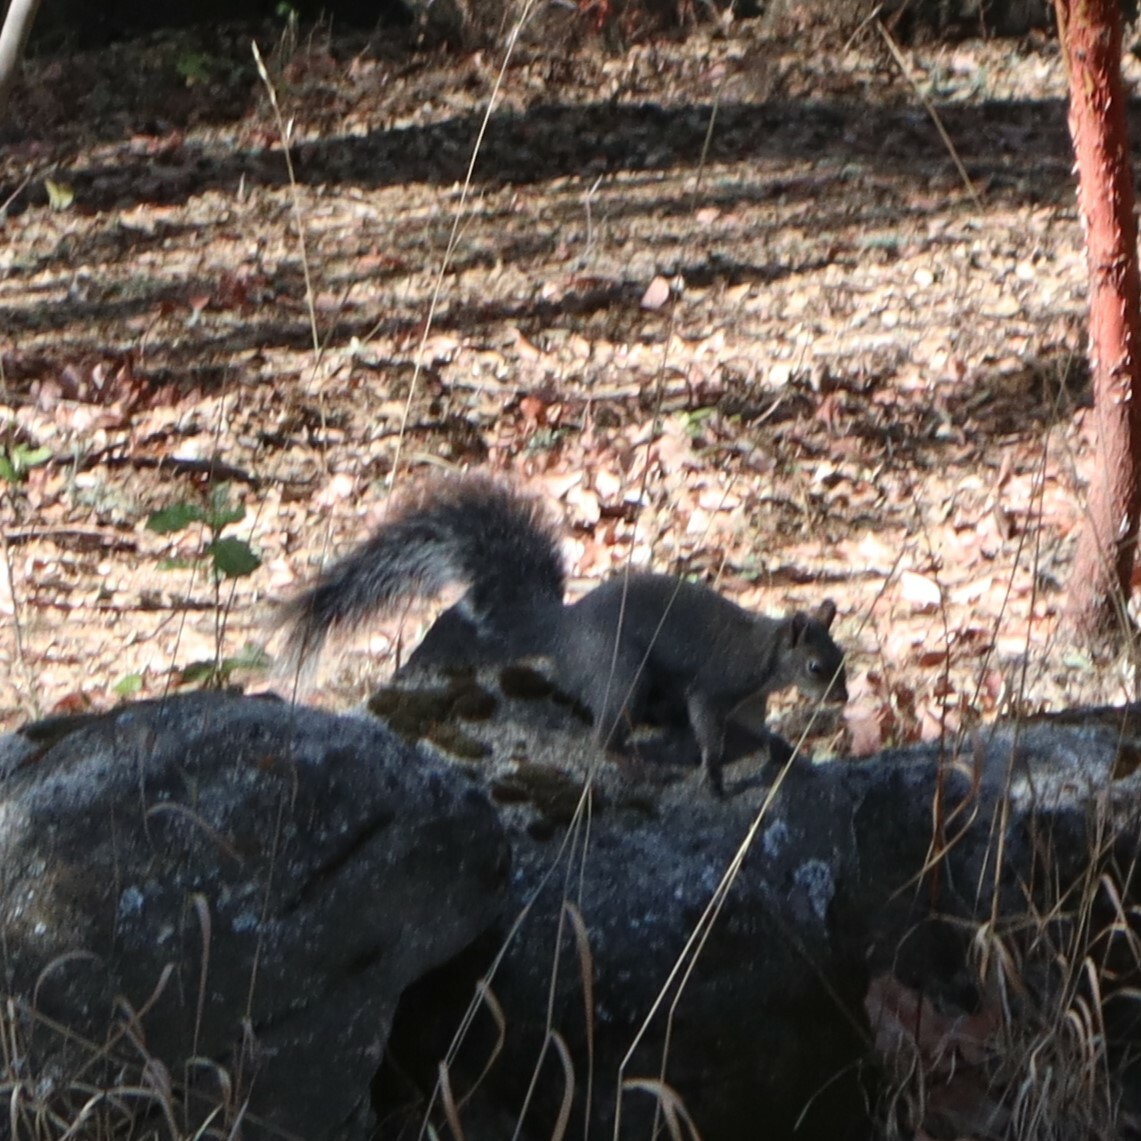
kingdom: Animalia
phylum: Chordata
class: Mammalia
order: Rodentia
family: Sciuridae
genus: Sciurus
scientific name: Sciurus griseus
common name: Western gray squirrel
